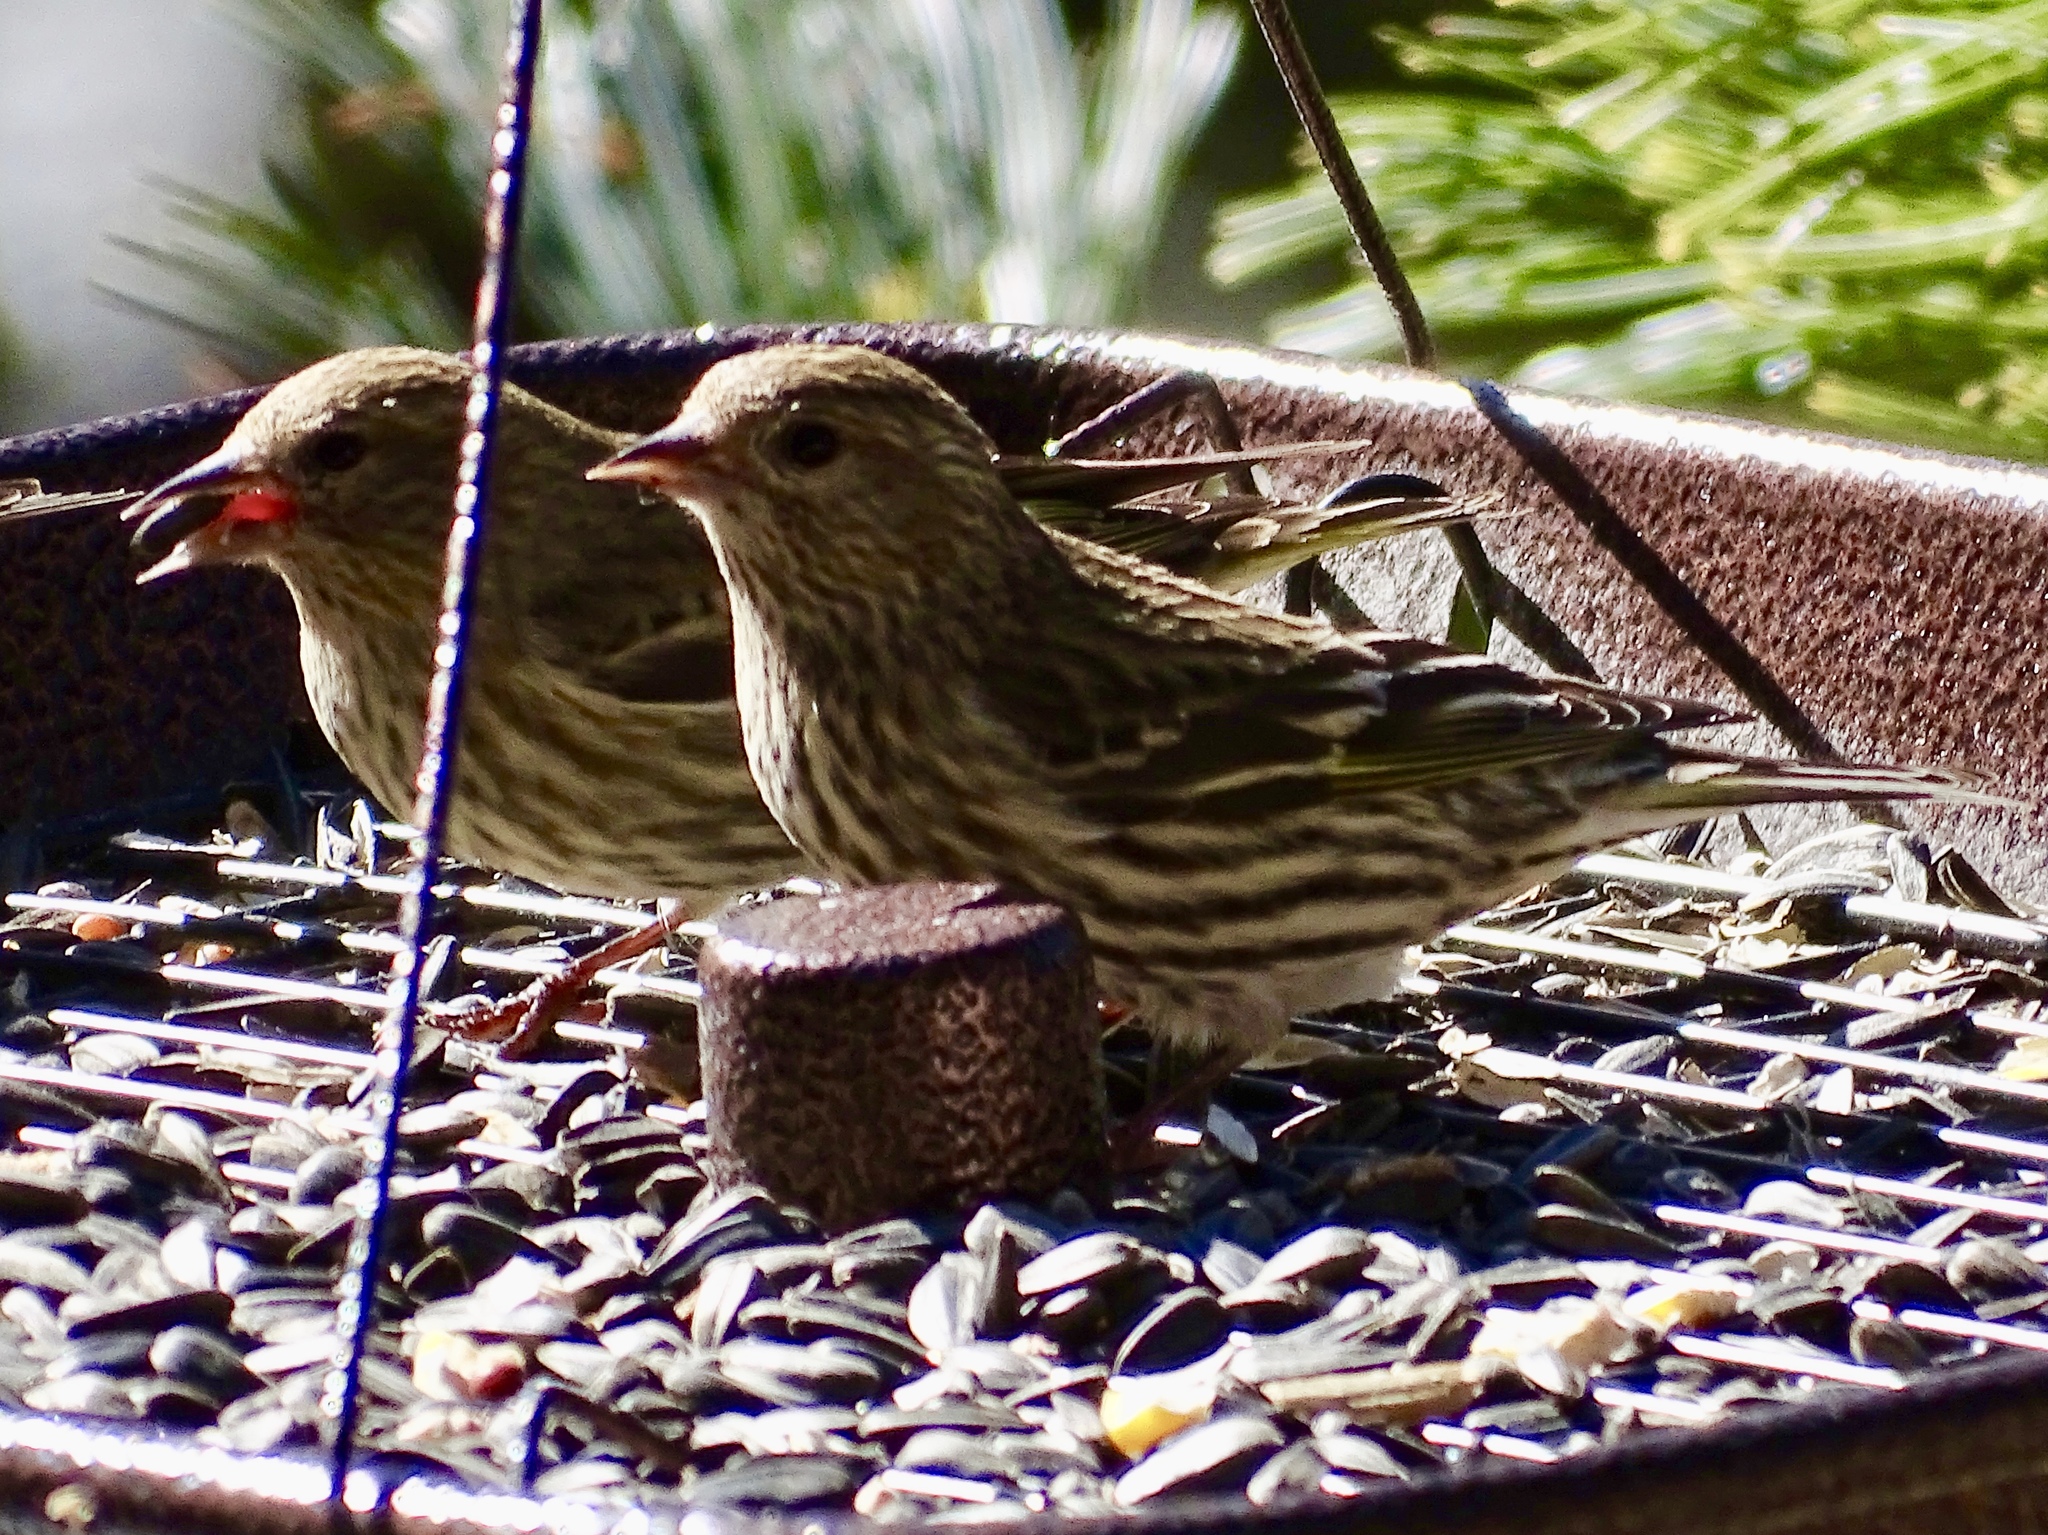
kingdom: Animalia
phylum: Chordata
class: Aves
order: Passeriformes
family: Fringillidae
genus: Spinus
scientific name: Spinus pinus
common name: Pine siskin
